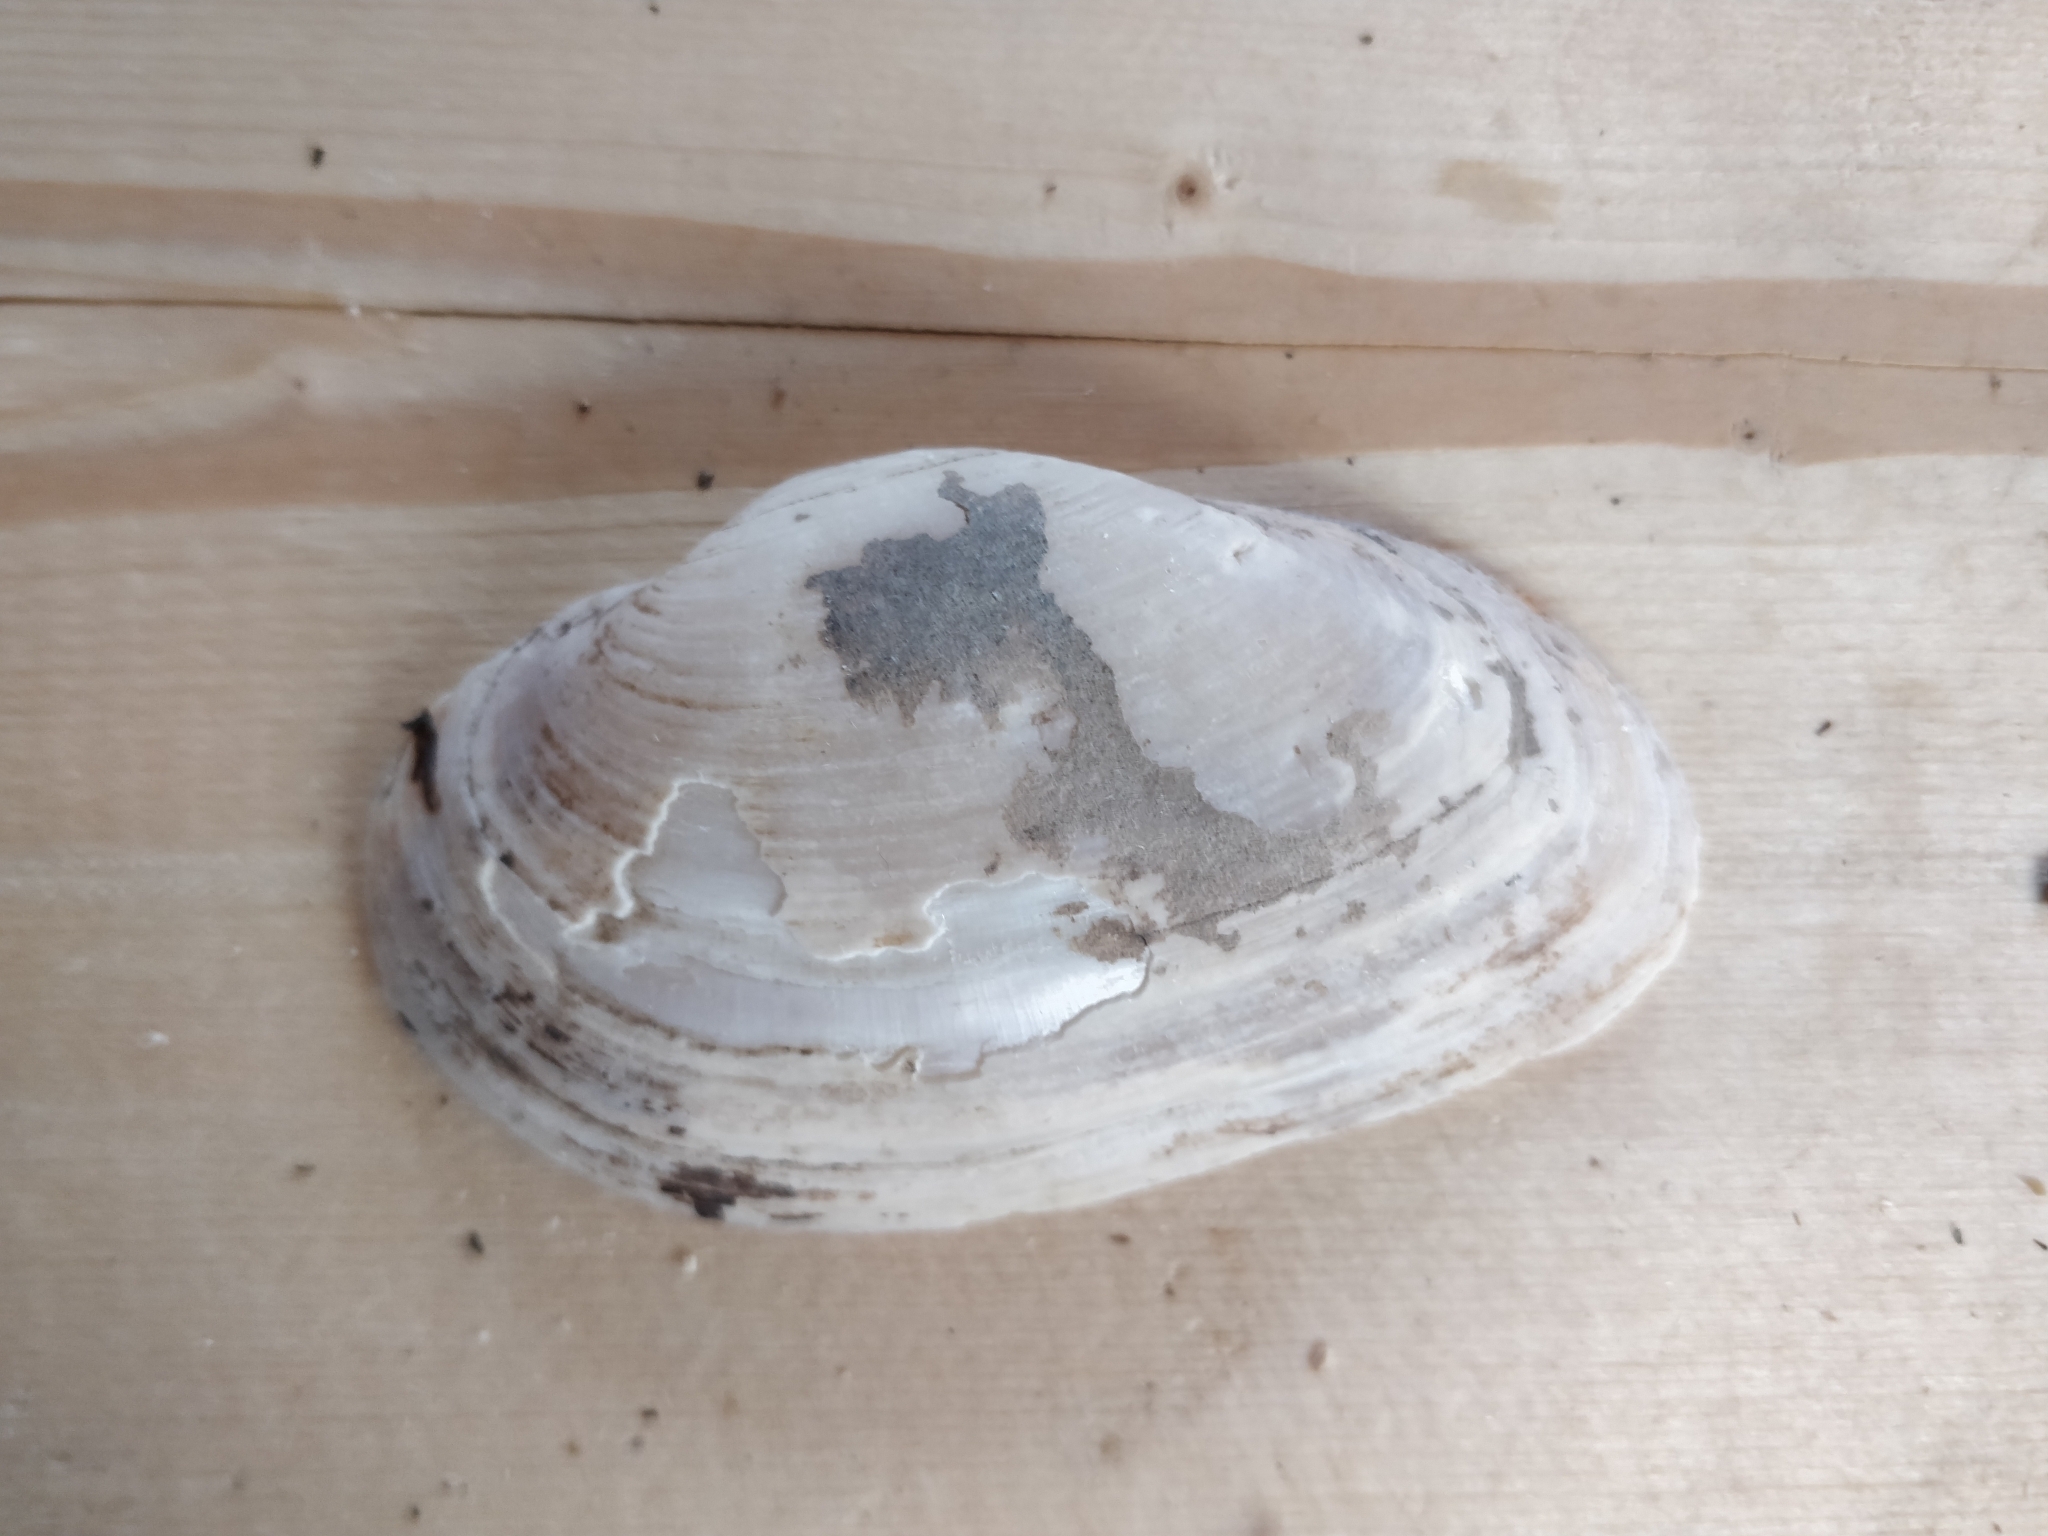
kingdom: Animalia
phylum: Mollusca
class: Bivalvia
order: Unionida
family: Unionidae
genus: Strophitus
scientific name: Strophitus undulatus
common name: Creeper
